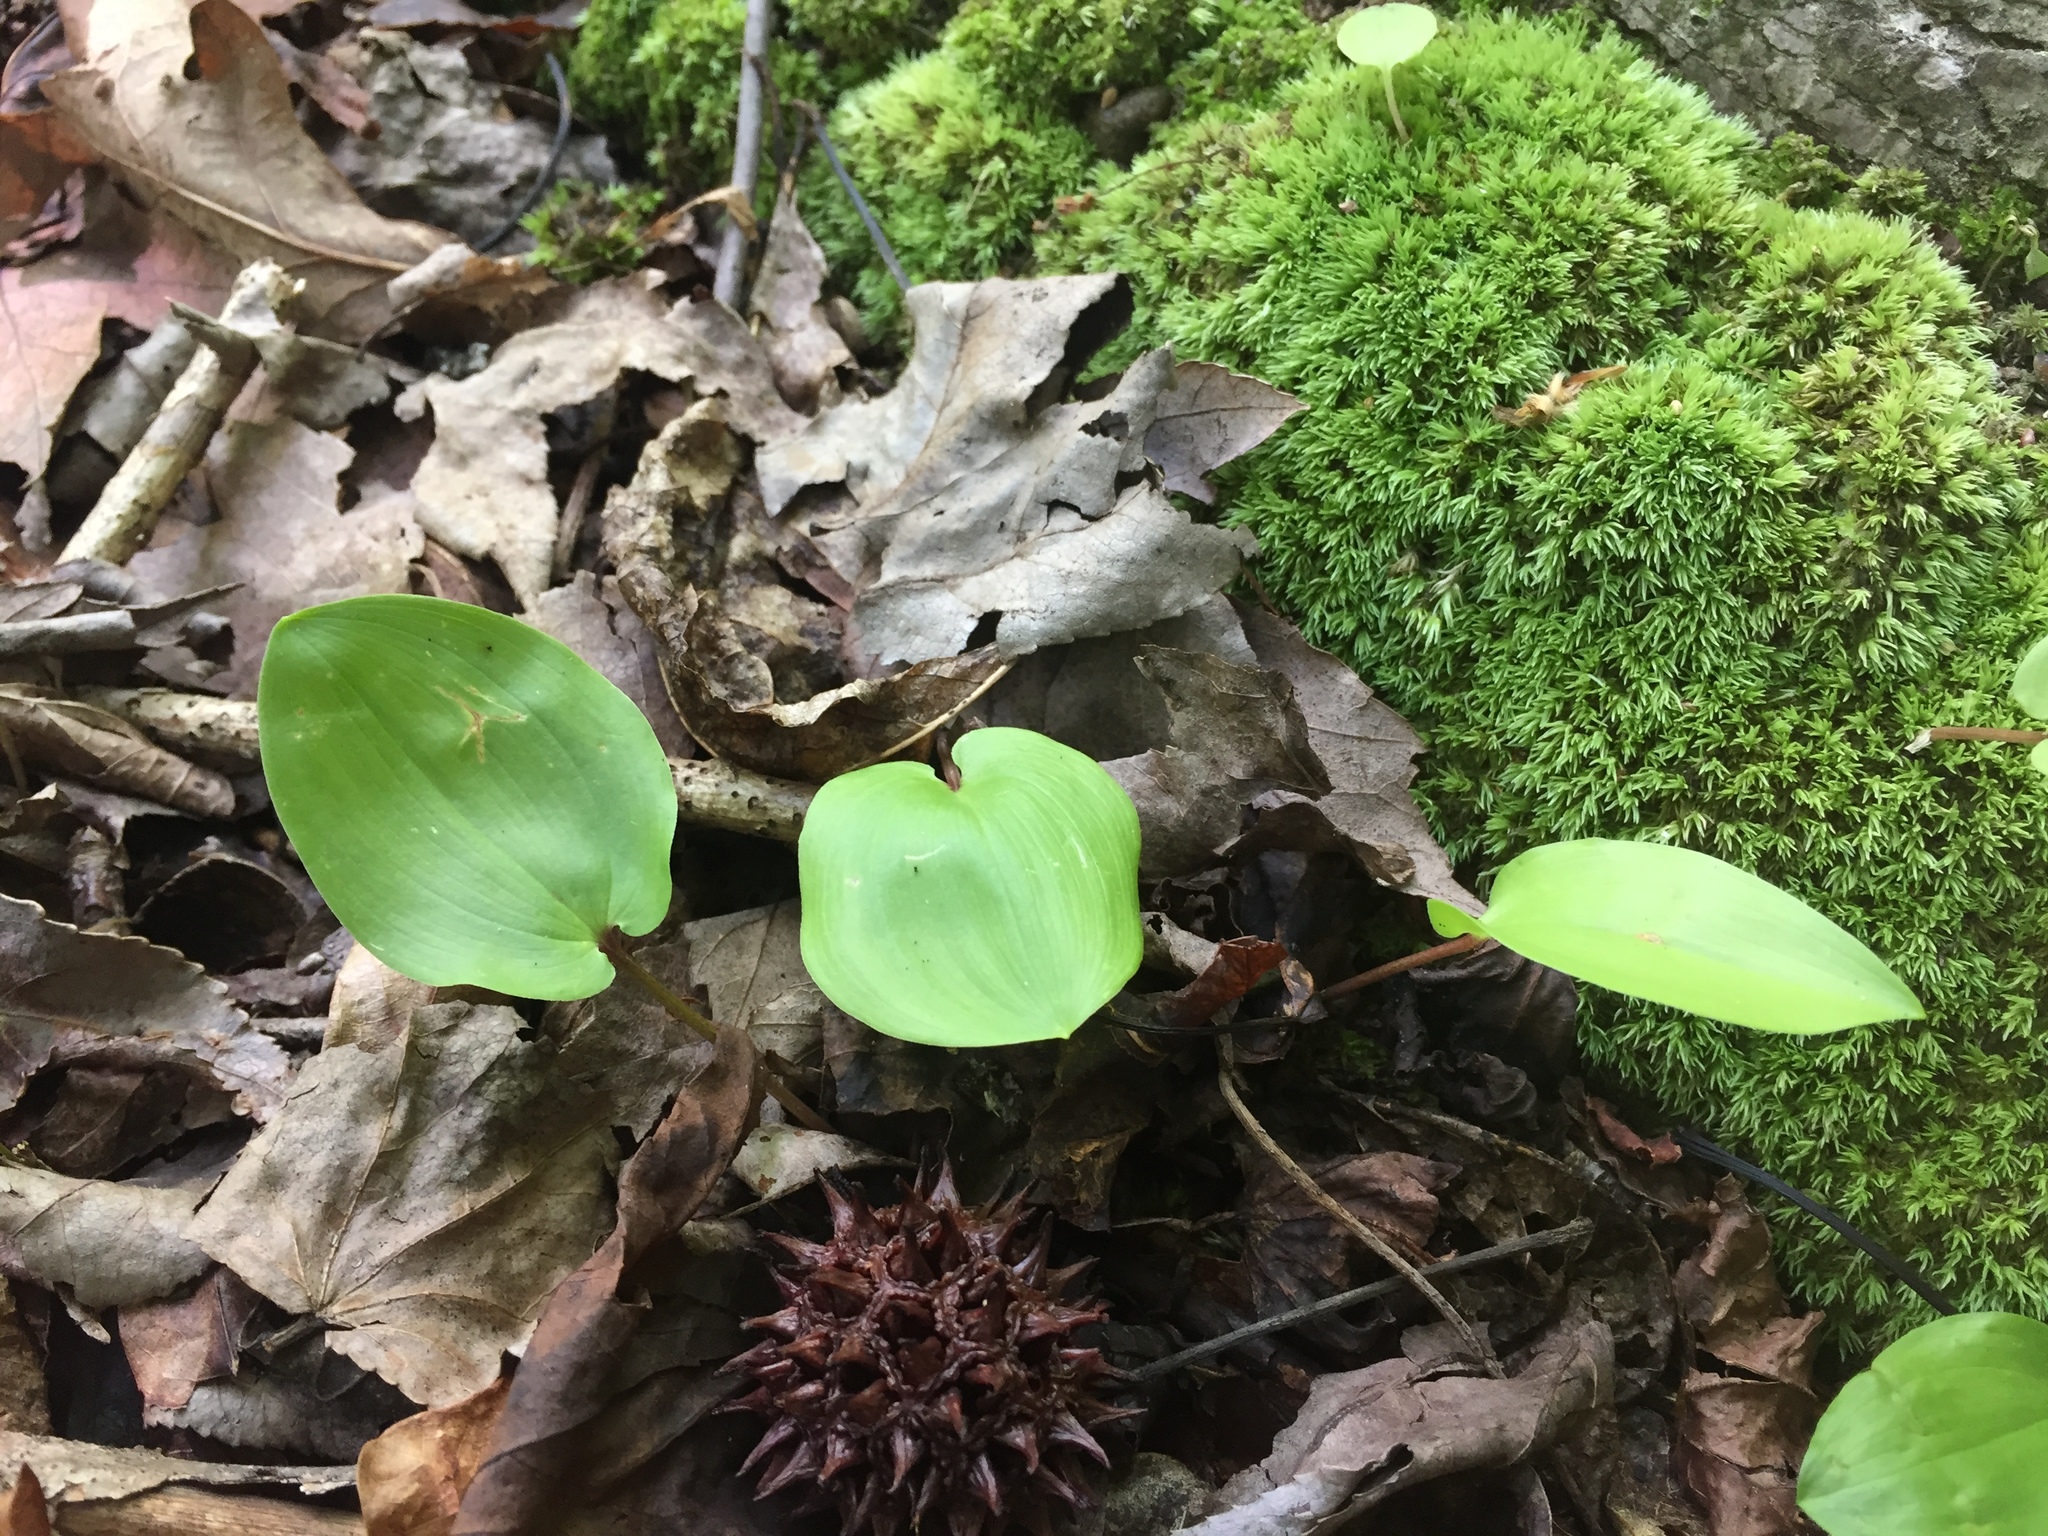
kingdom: Plantae
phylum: Tracheophyta
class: Liliopsida
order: Asparagales
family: Asparagaceae
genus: Maianthemum
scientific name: Maianthemum canadense
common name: False lily-of-the-valley
